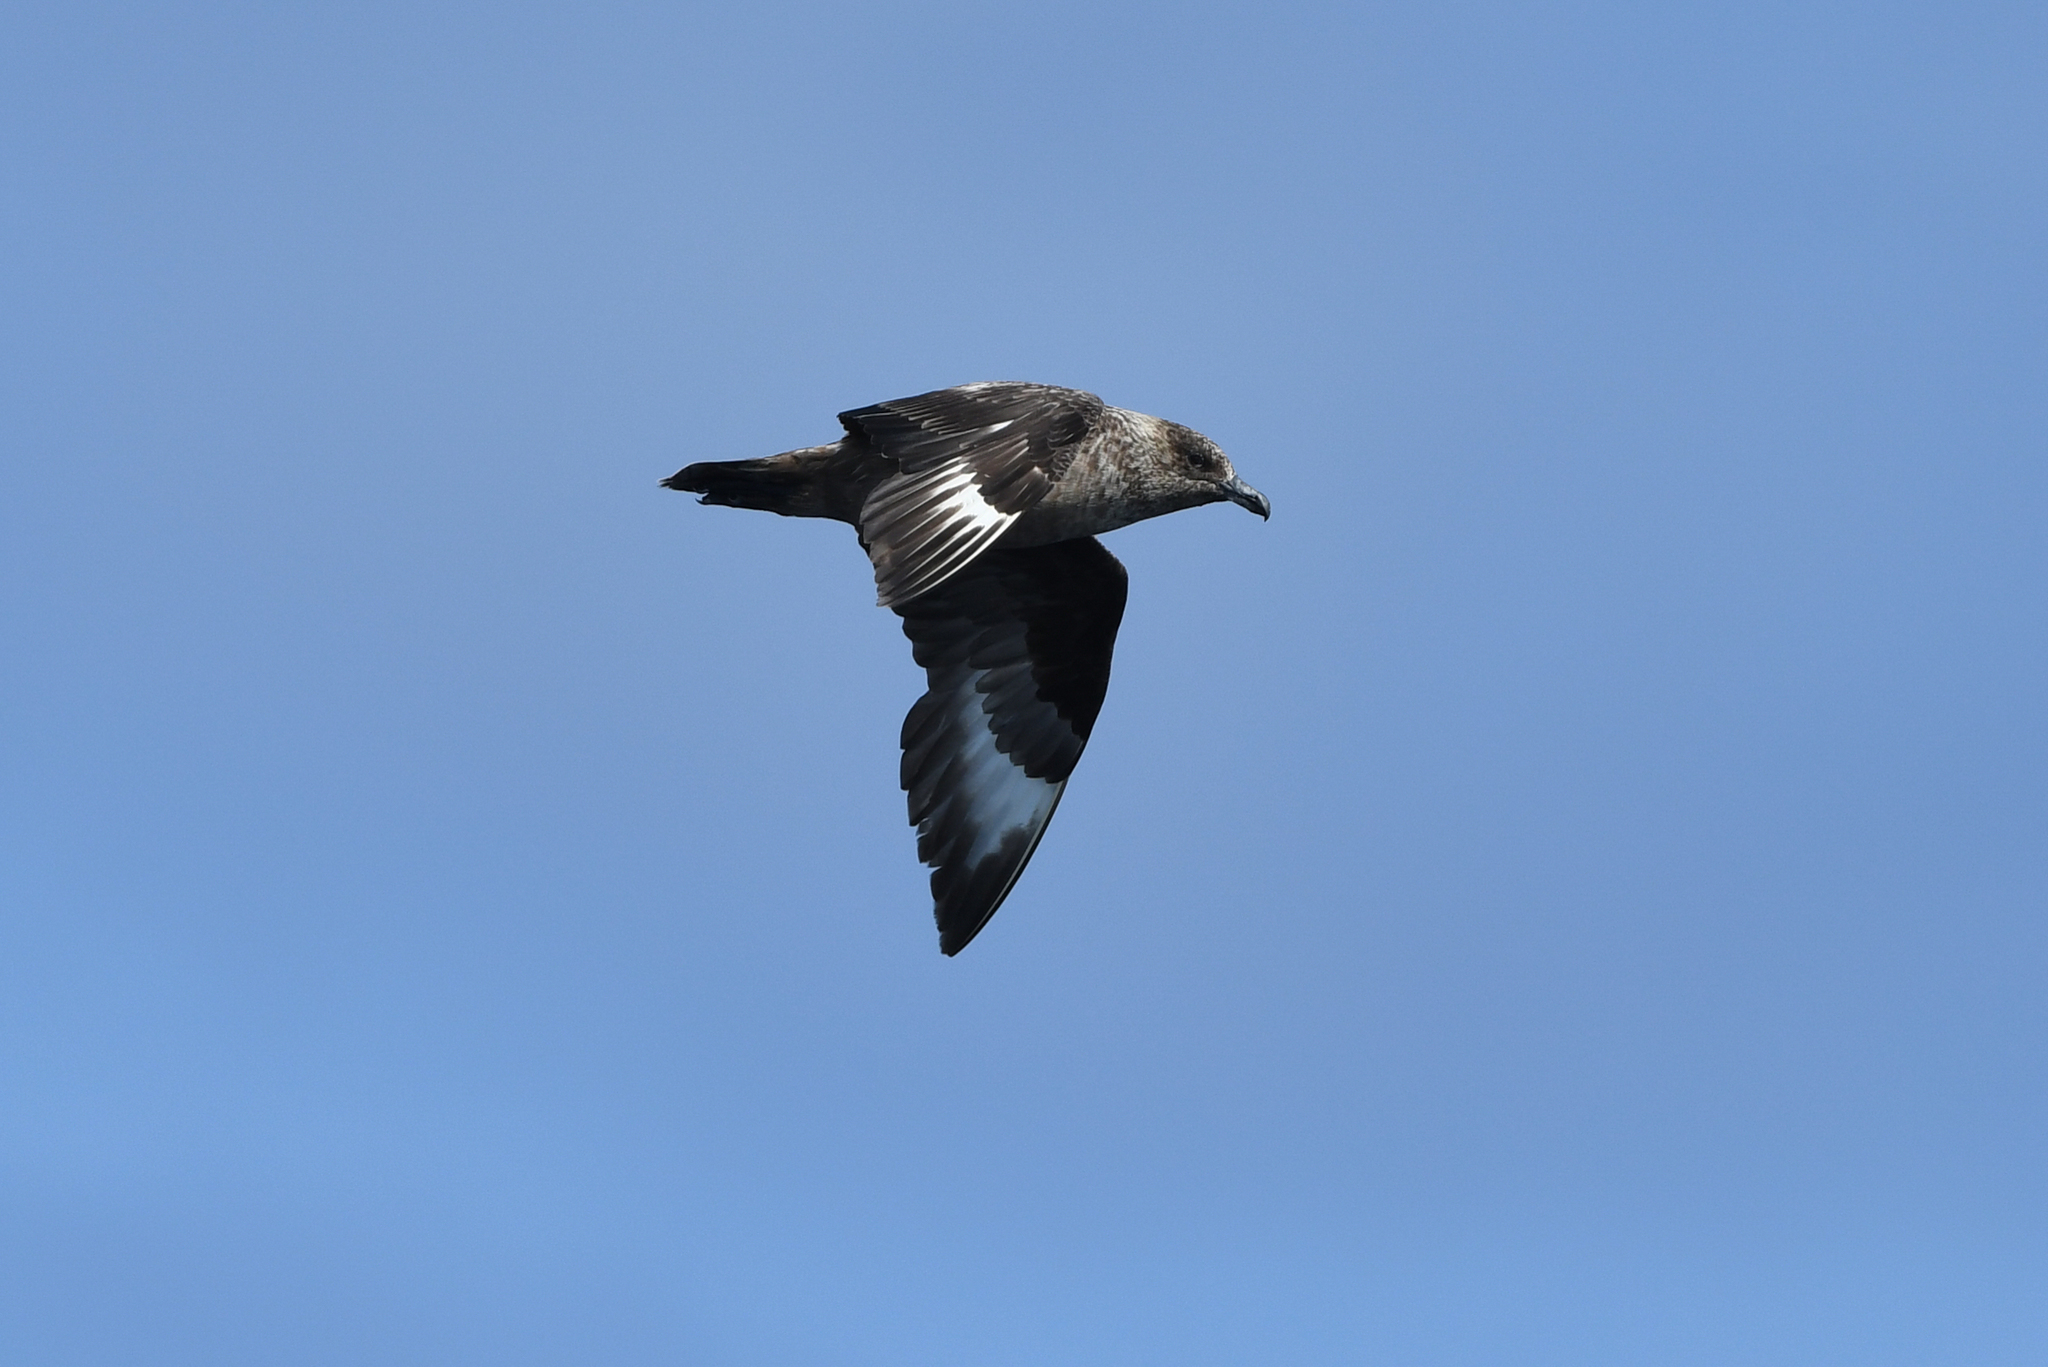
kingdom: Animalia
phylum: Chordata
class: Aves
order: Charadriiformes
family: Stercorariidae
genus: Stercorarius
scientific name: Stercorarius skua
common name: Great skua
